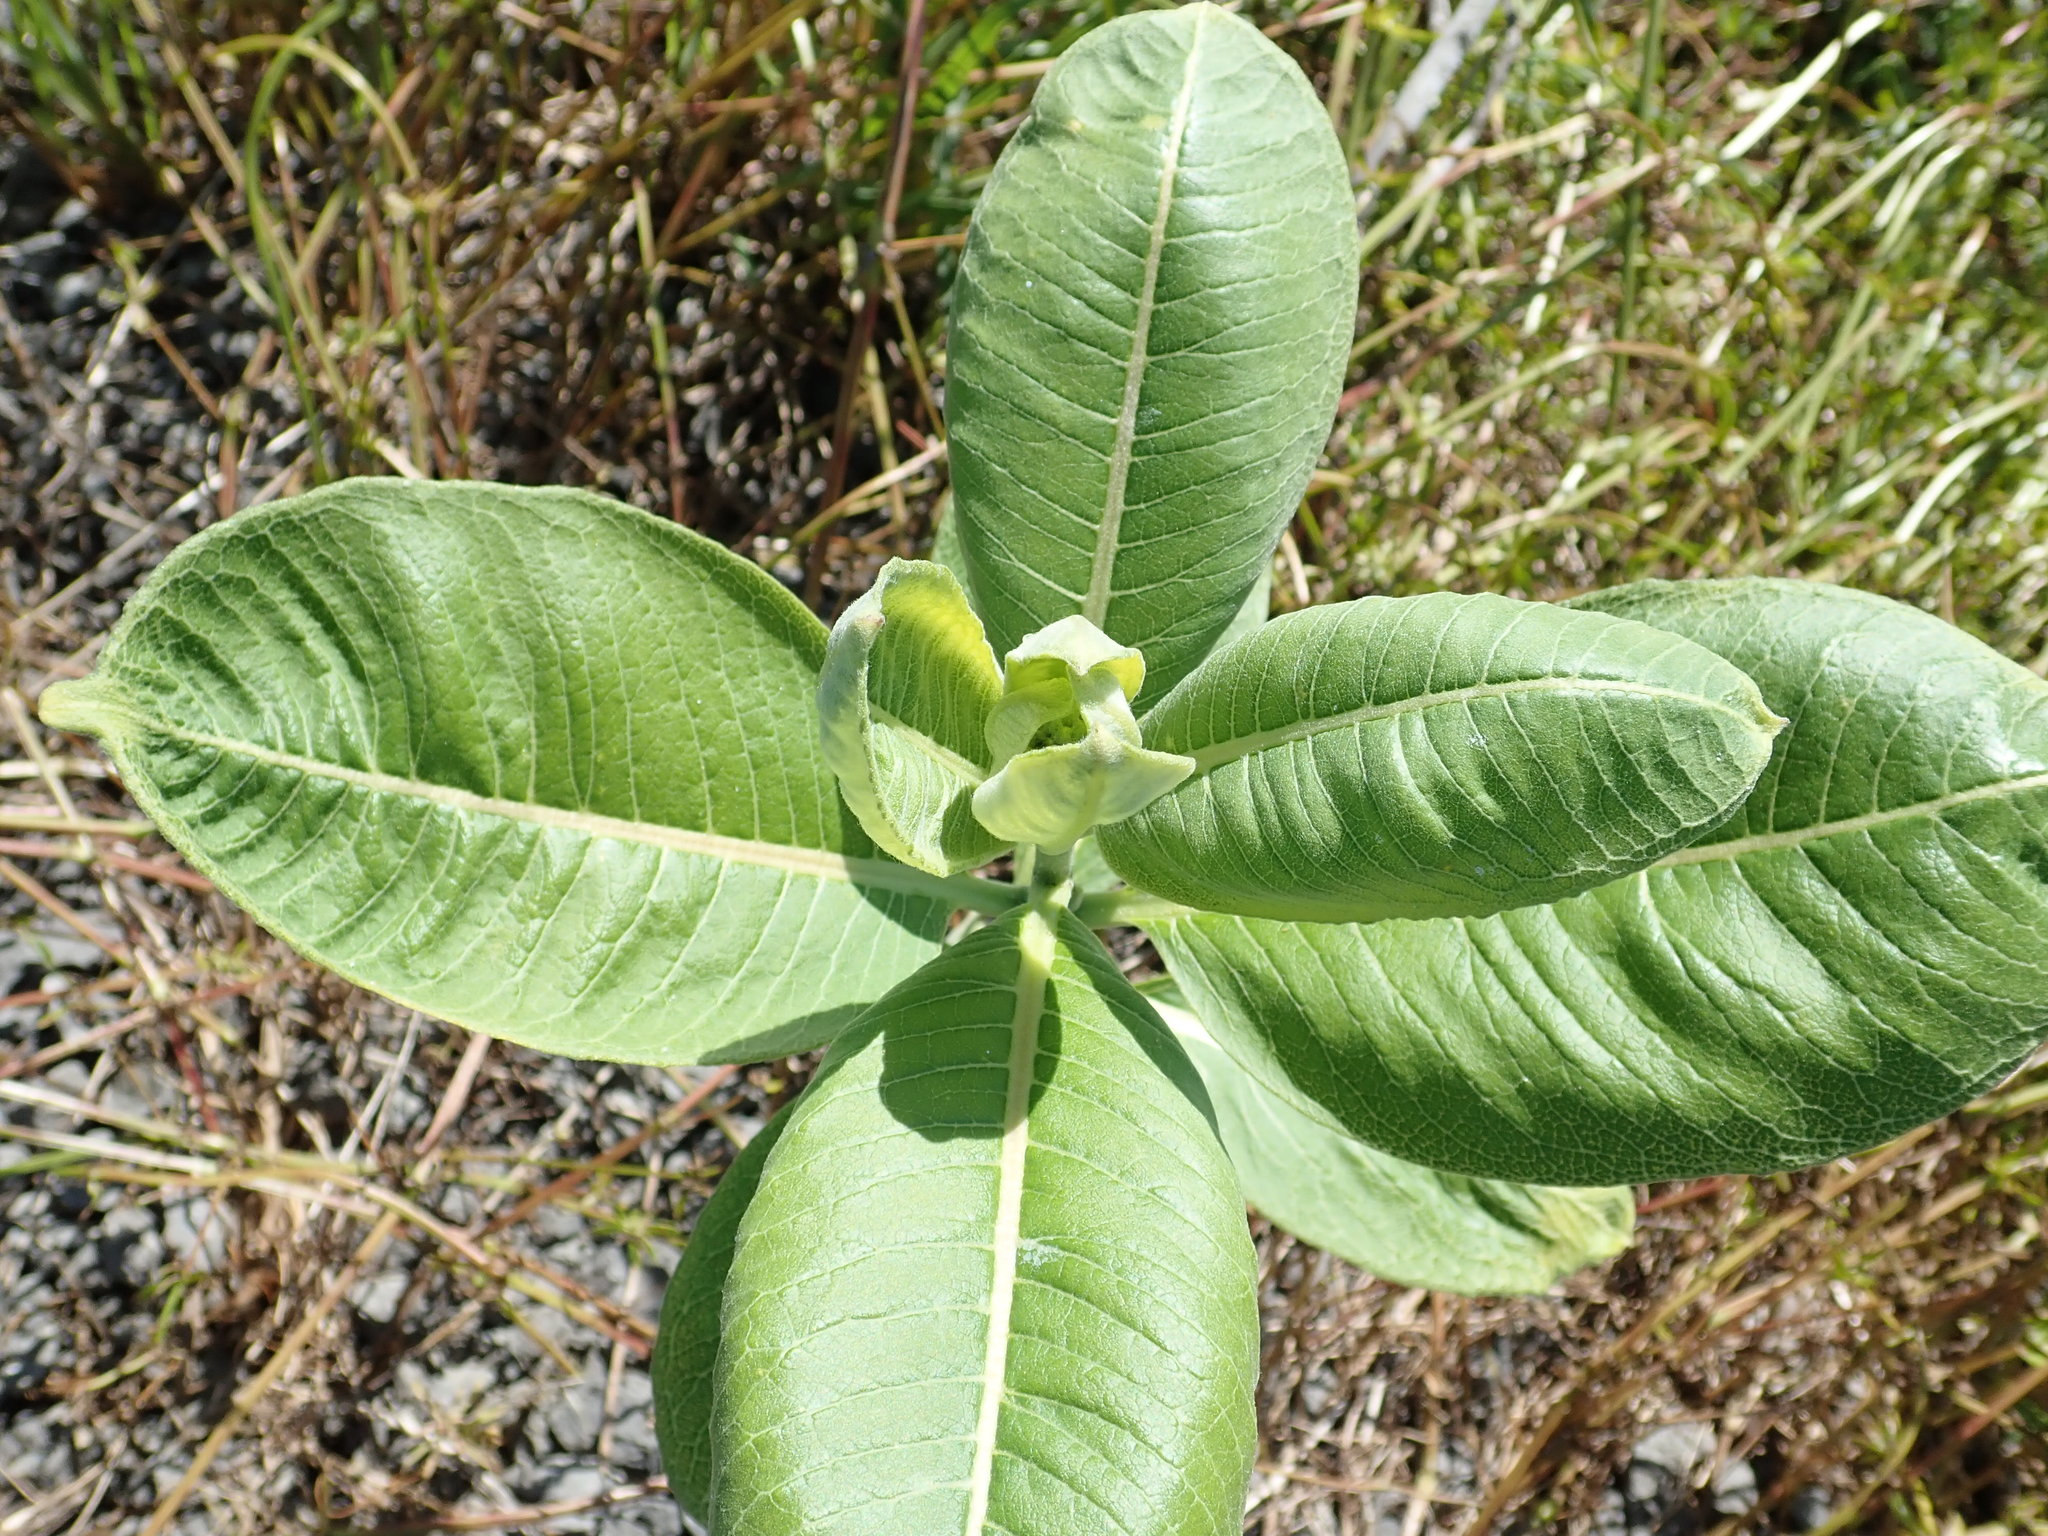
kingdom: Plantae
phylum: Tracheophyta
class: Magnoliopsida
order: Gentianales
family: Apocynaceae
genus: Asclepias
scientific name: Asclepias syriaca
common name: Common milkweed
